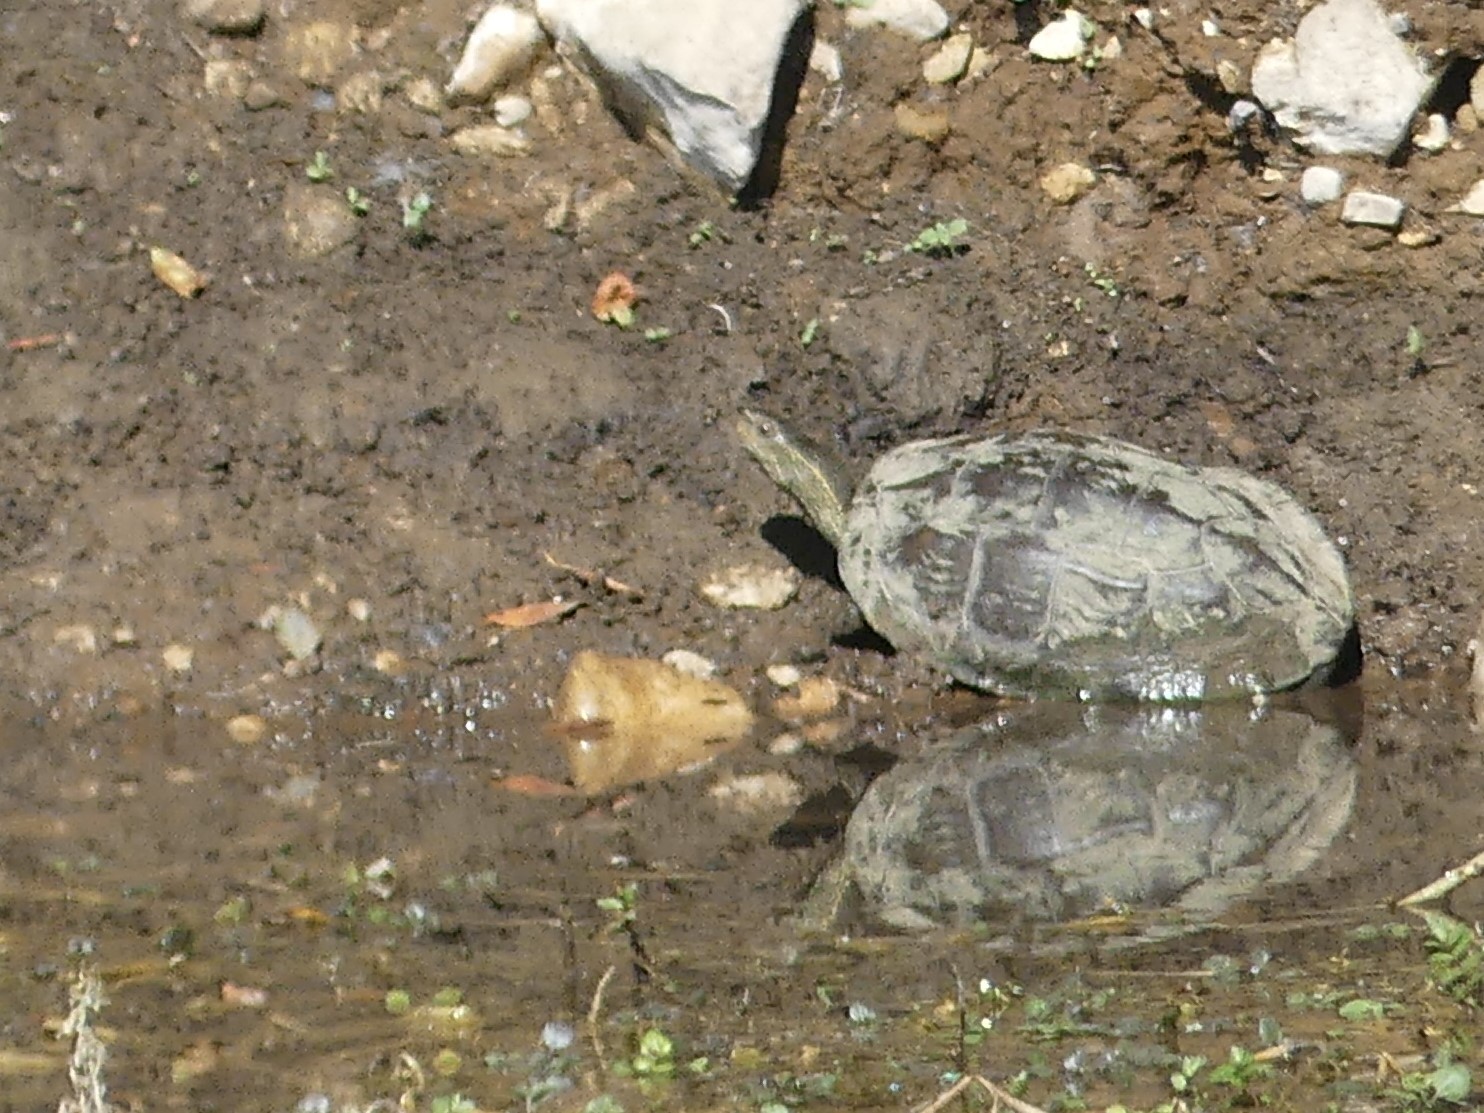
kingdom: Animalia
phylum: Chordata
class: Testudines
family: Geoemydidae
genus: Mauremys
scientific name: Mauremys rivulata
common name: Western caspian turtle
